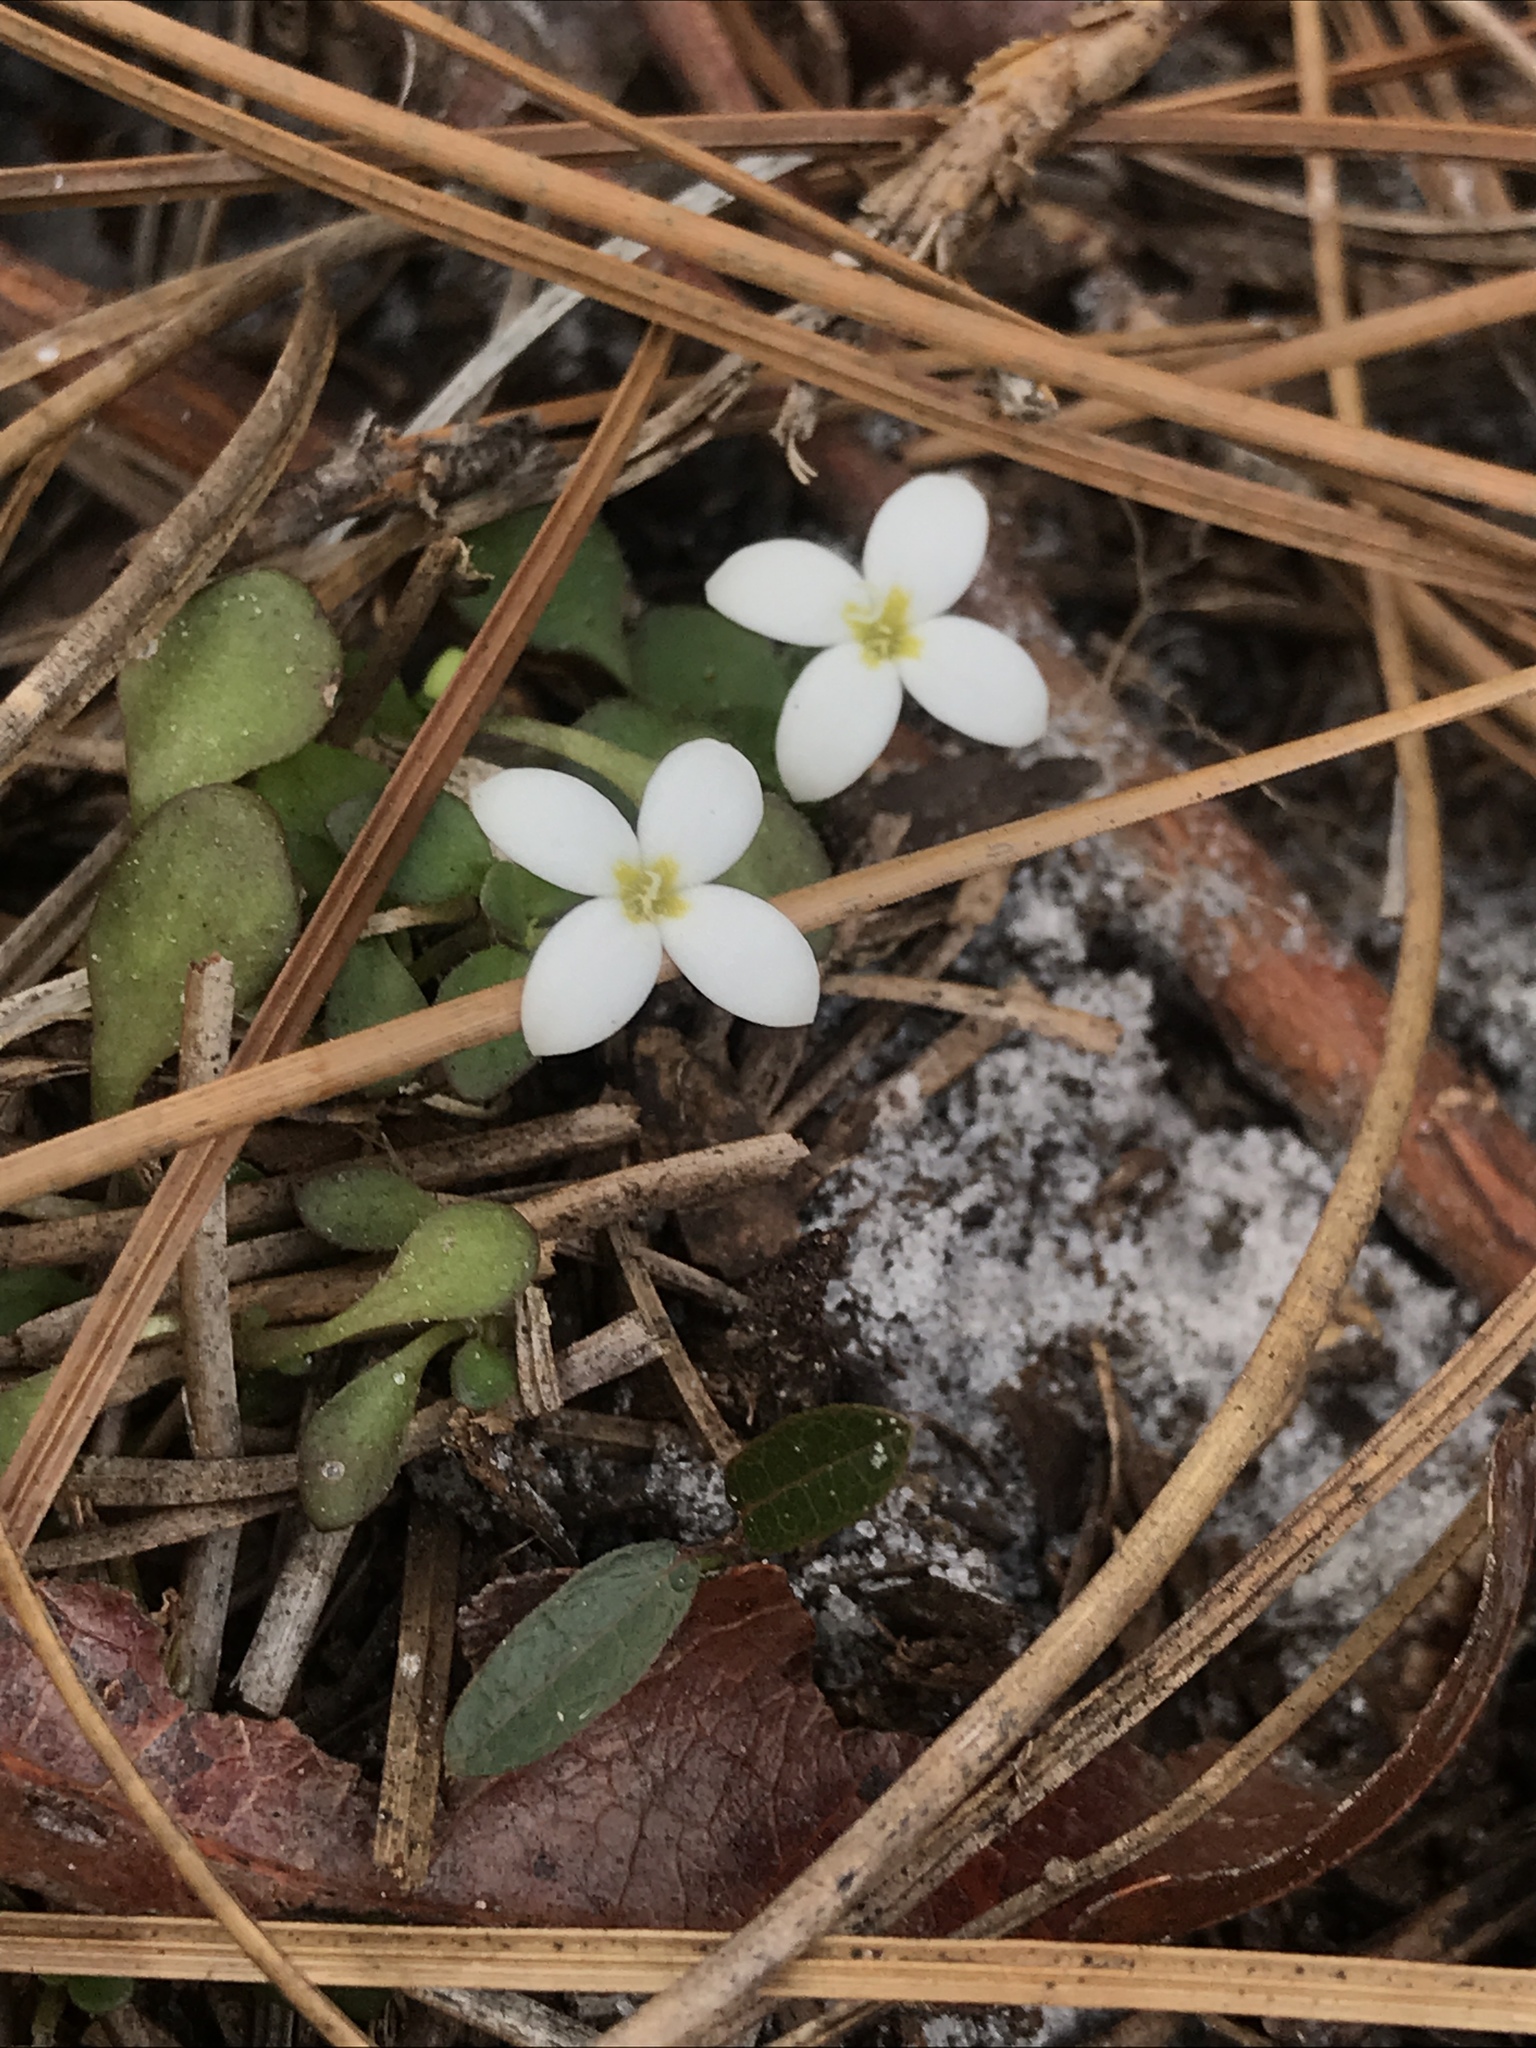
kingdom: Plantae
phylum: Tracheophyta
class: Magnoliopsida
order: Gentianales
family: Rubiaceae
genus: Houstonia
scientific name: Houstonia procumbens
